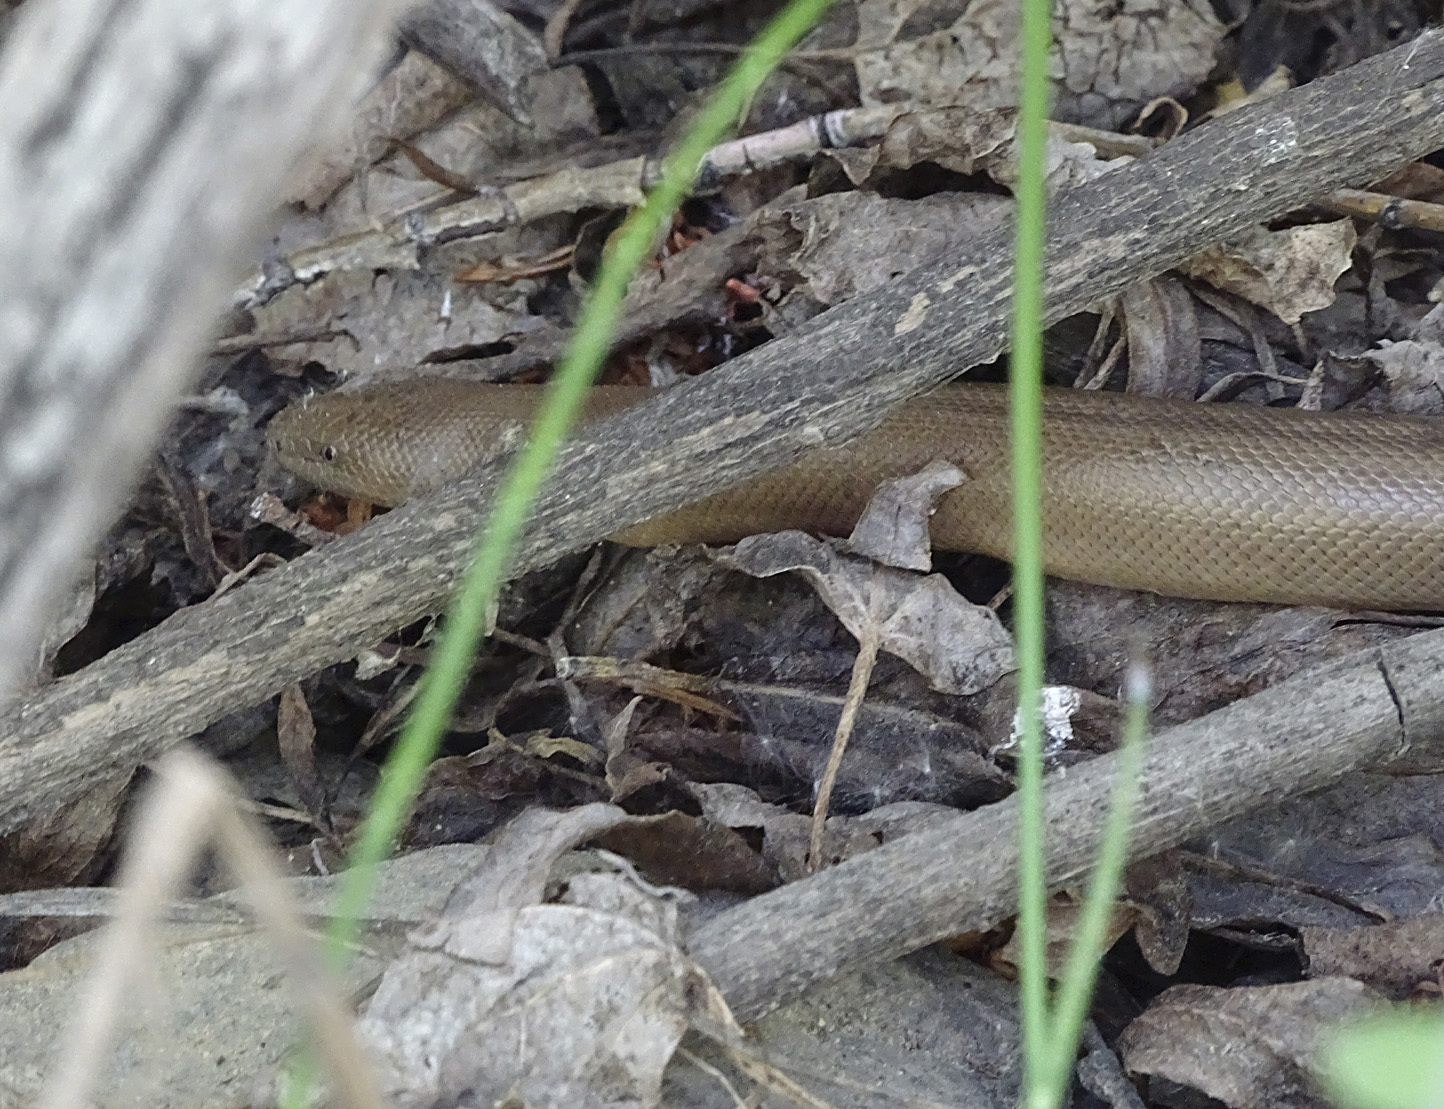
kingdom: Animalia
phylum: Chordata
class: Squamata
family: Boidae
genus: Charina
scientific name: Charina bottae
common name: Northern rubber boa
